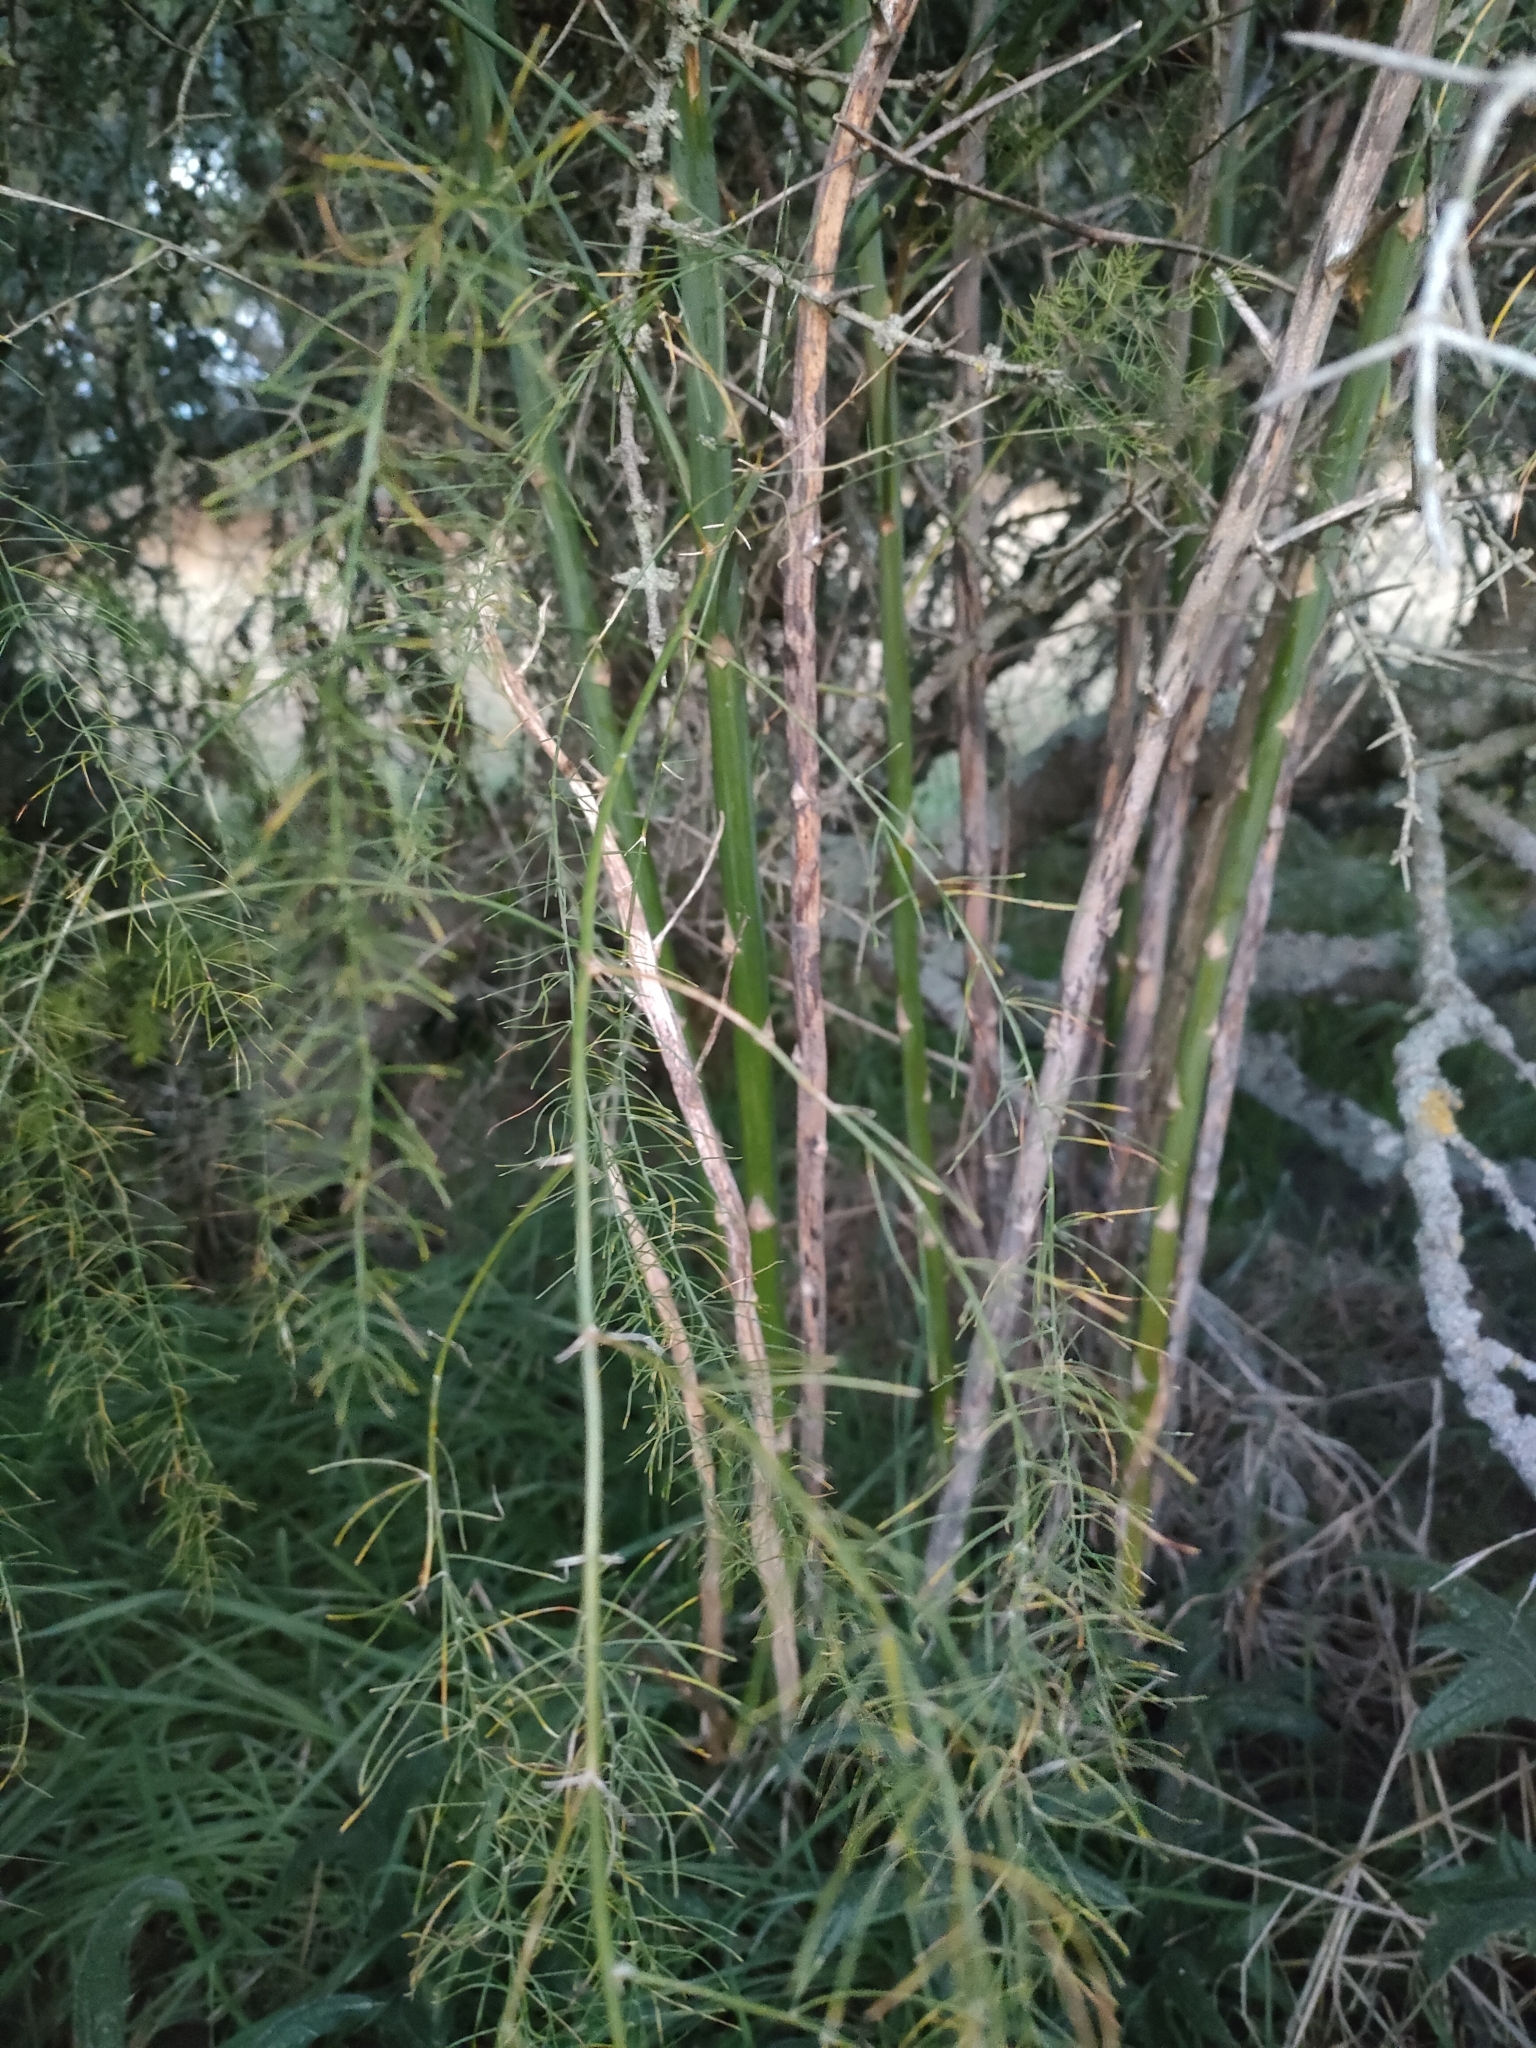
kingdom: Plantae
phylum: Tracheophyta
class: Liliopsida
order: Asparagales
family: Asparagaceae
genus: Asparagus
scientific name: Asparagus officinalis
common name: Garden asparagus
